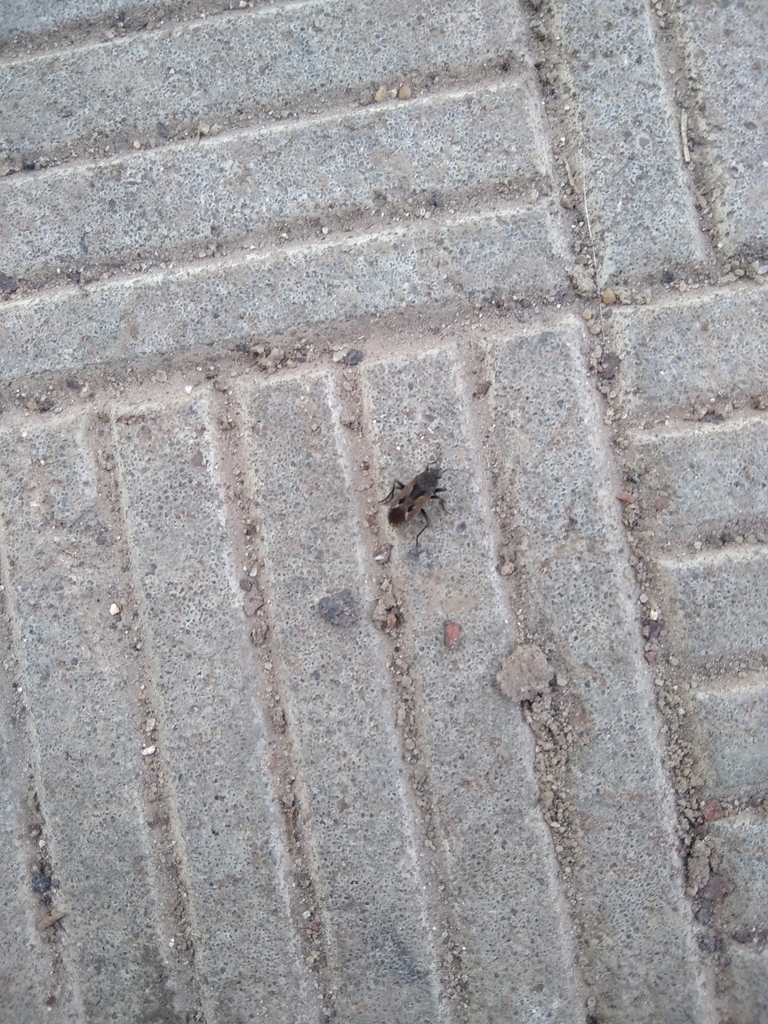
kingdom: Animalia
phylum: Arthropoda
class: Insecta
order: Hemiptera
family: Rhyparochromidae
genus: Rhyparochromus
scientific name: Rhyparochromus pini
